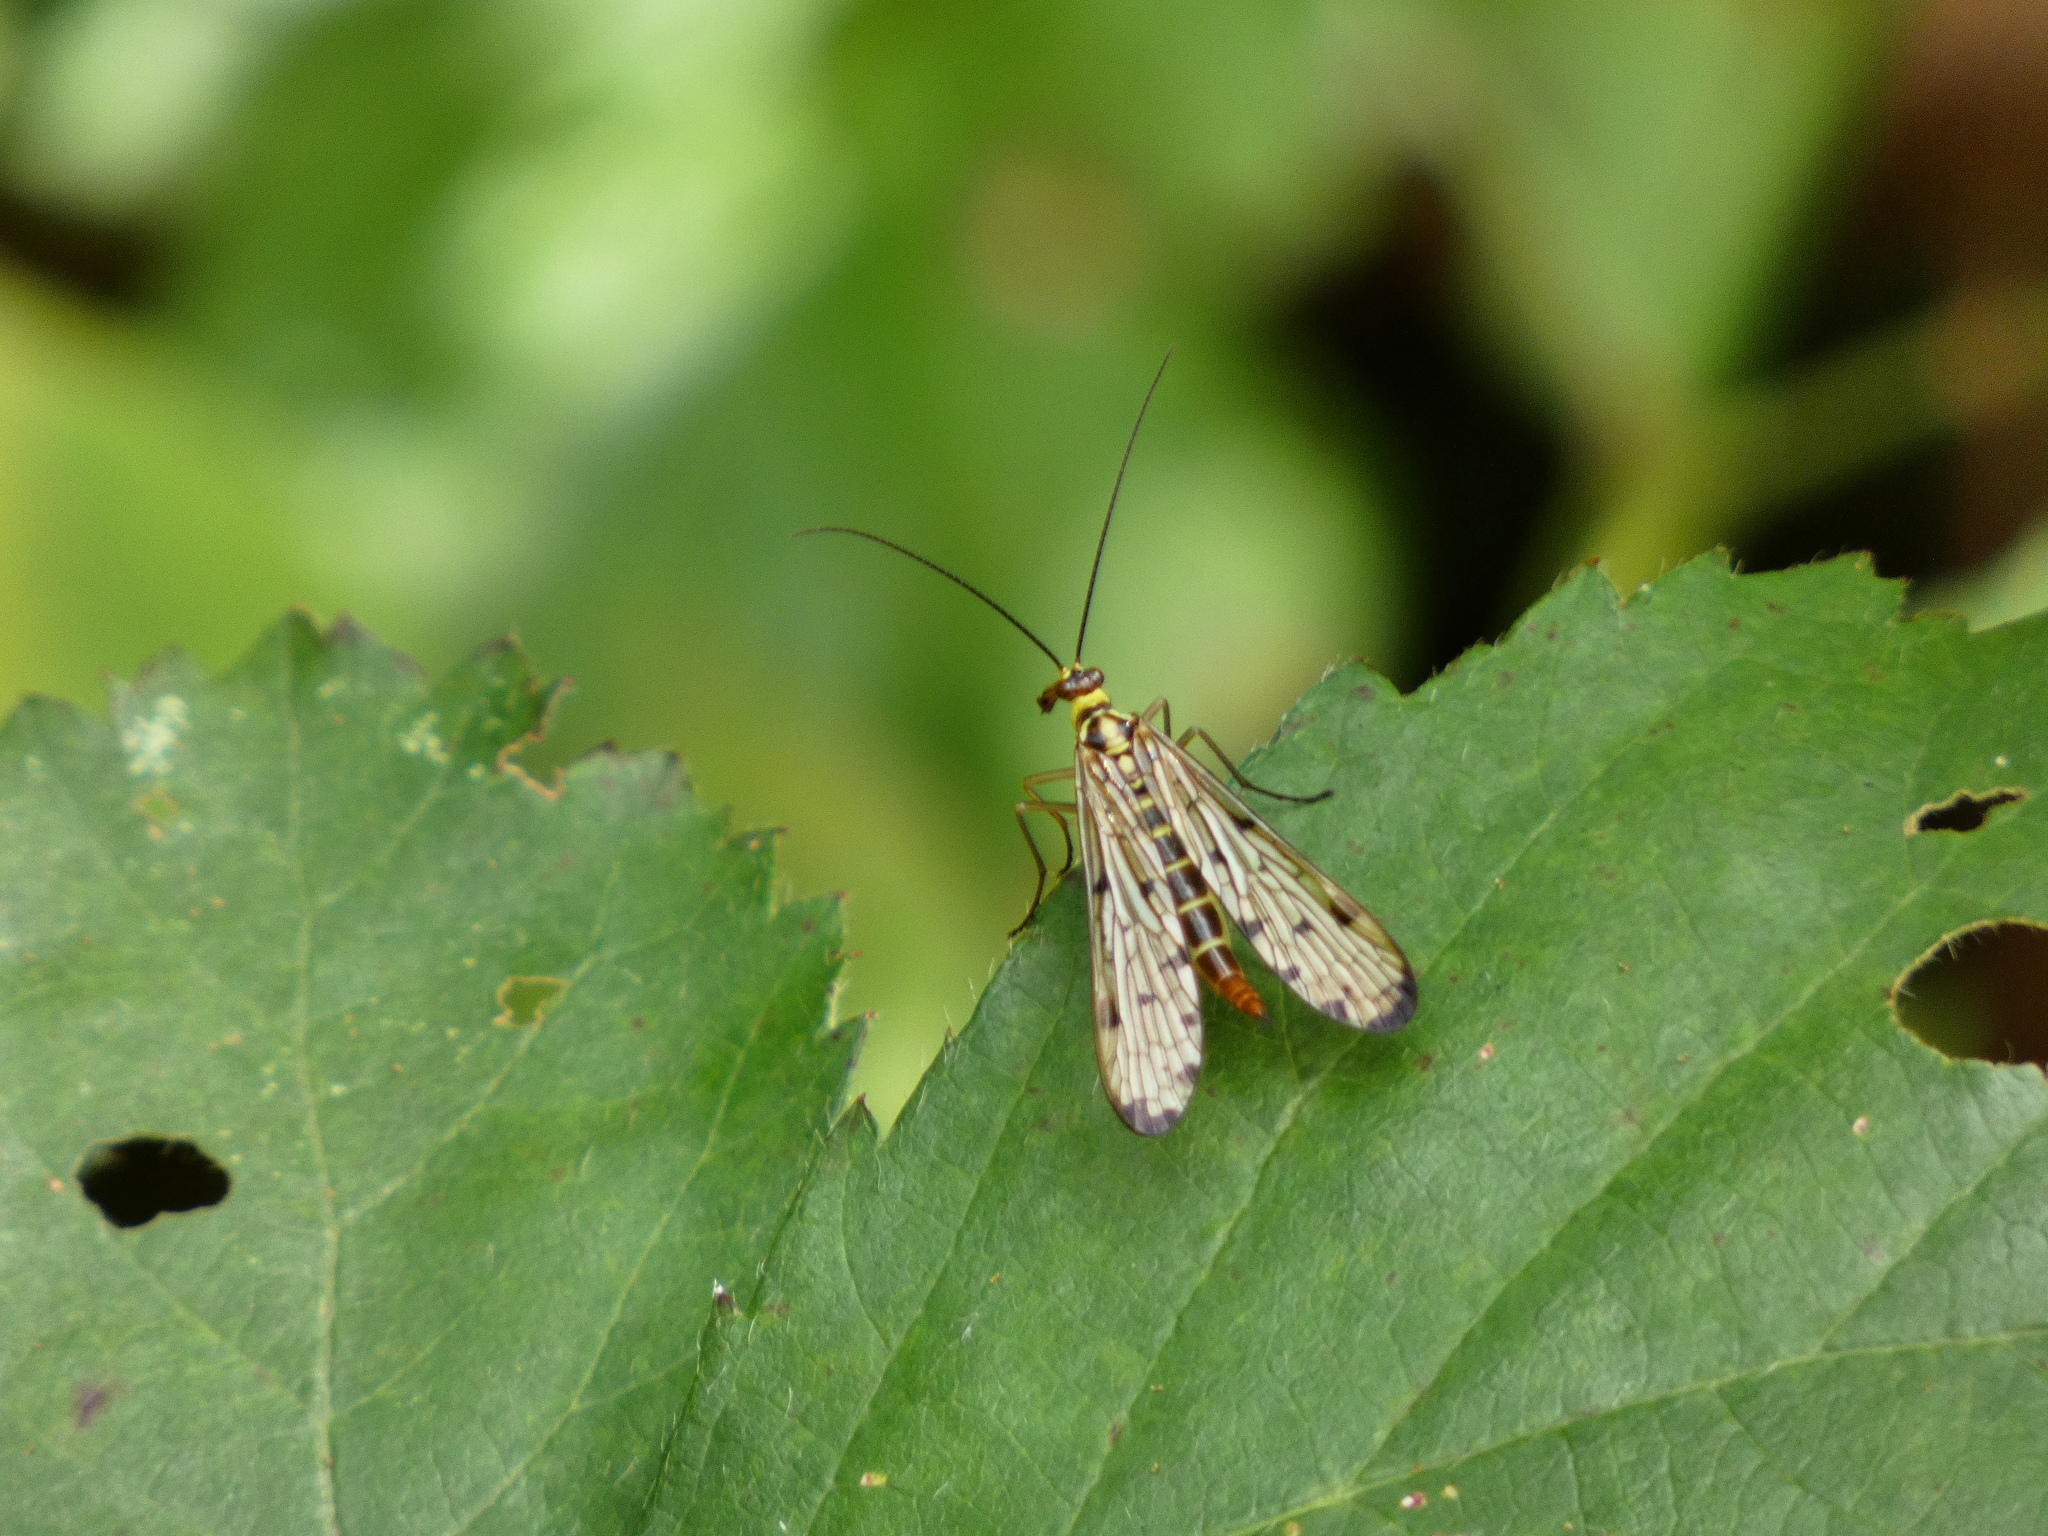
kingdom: Animalia
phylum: Arthropoda
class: Insecta
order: Mecoptera
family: Panorpidae
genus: Panorpa
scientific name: Panorpa germanica
